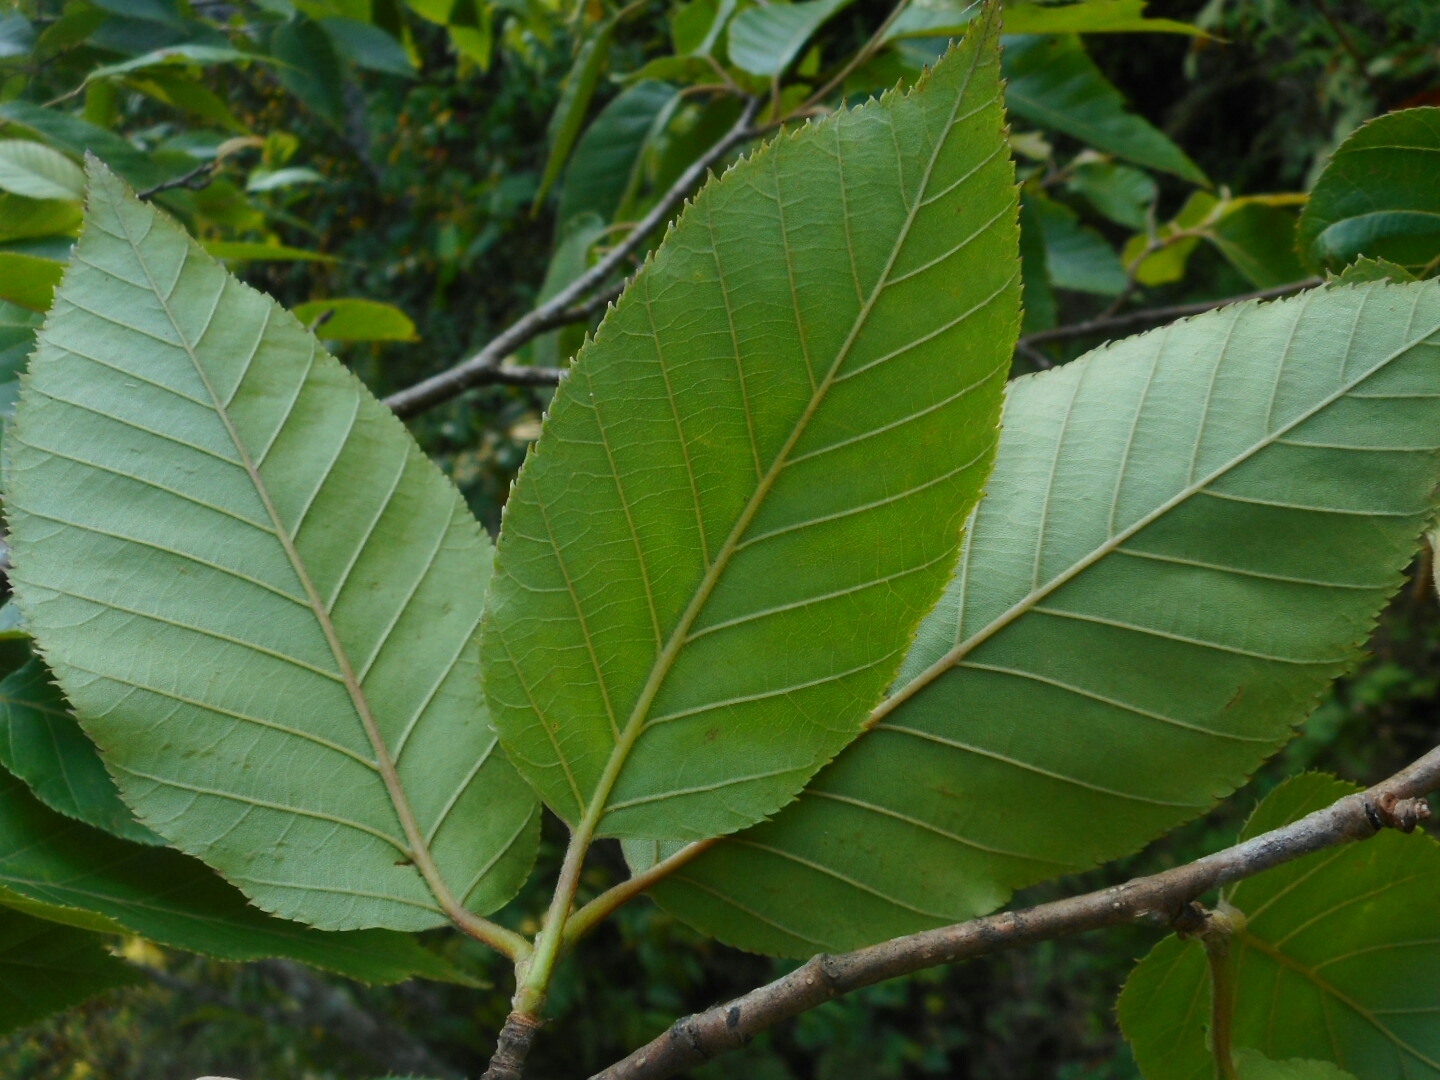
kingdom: Plantae
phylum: Tracheophyta
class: Magnoliopsida
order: Fagales
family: Betulaceae
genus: Betula
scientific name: Betula alnoides
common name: Indian birch
